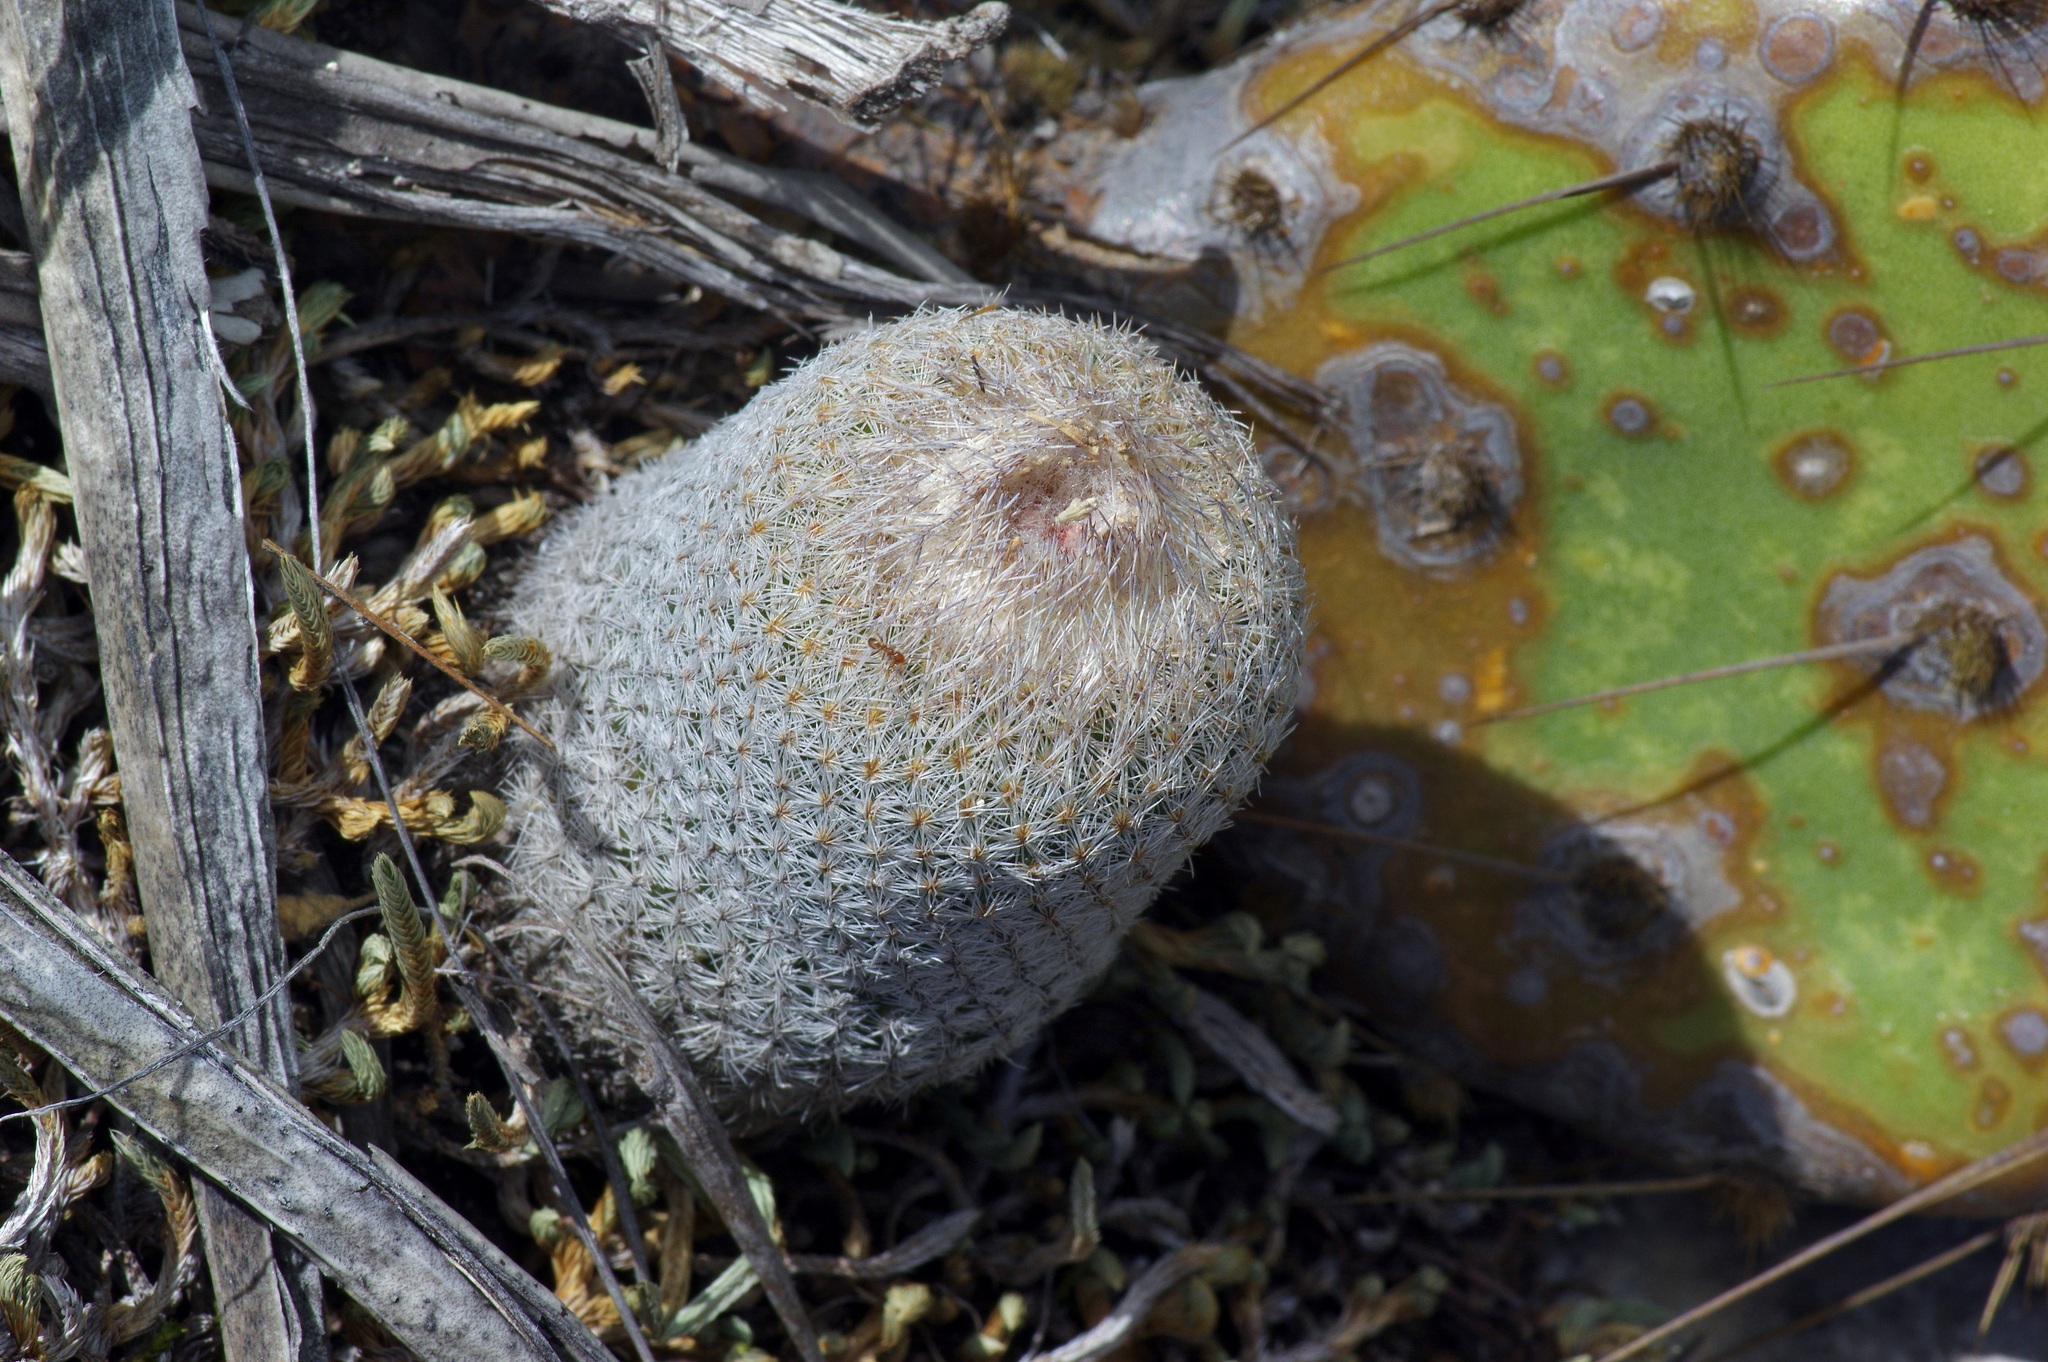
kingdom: Plantae
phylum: Tracheophyta
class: Magnoliopsida
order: Caryophyllales
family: Cactaceae
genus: Epithelantha
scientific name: Epithelantha micromeris
